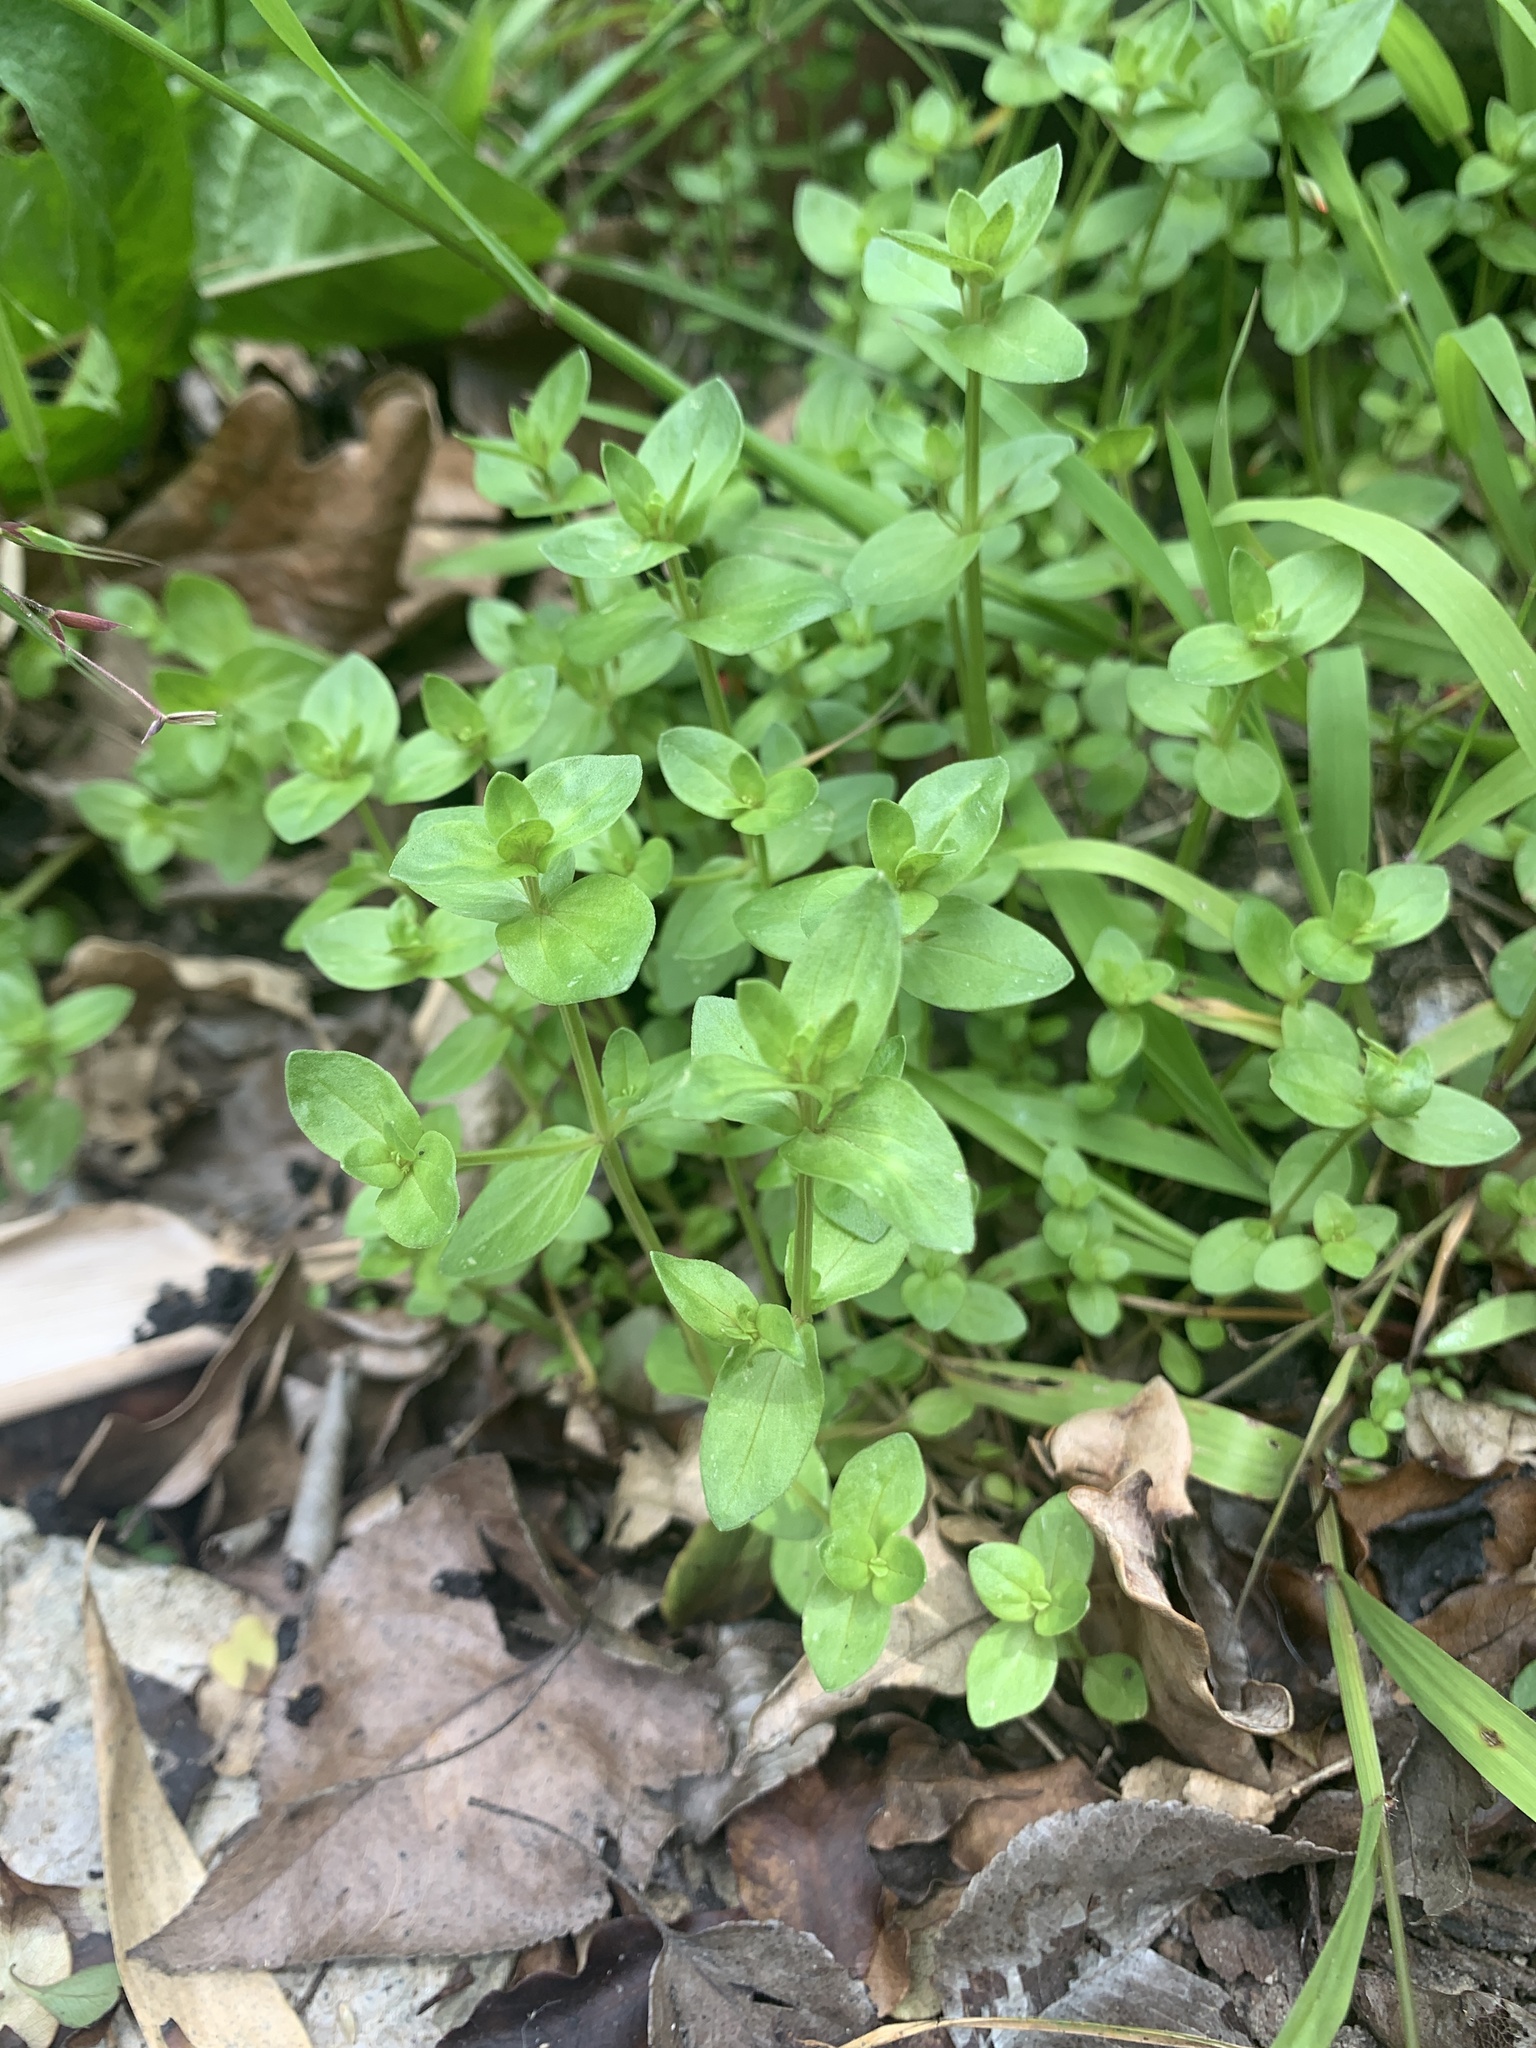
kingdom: Plantae
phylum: Tracheophyta
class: Magnoliopsida
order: Ericales
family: Primulaceae
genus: Lysimachia
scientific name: Lysimachia arvensis
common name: Scarlet pimpernel
